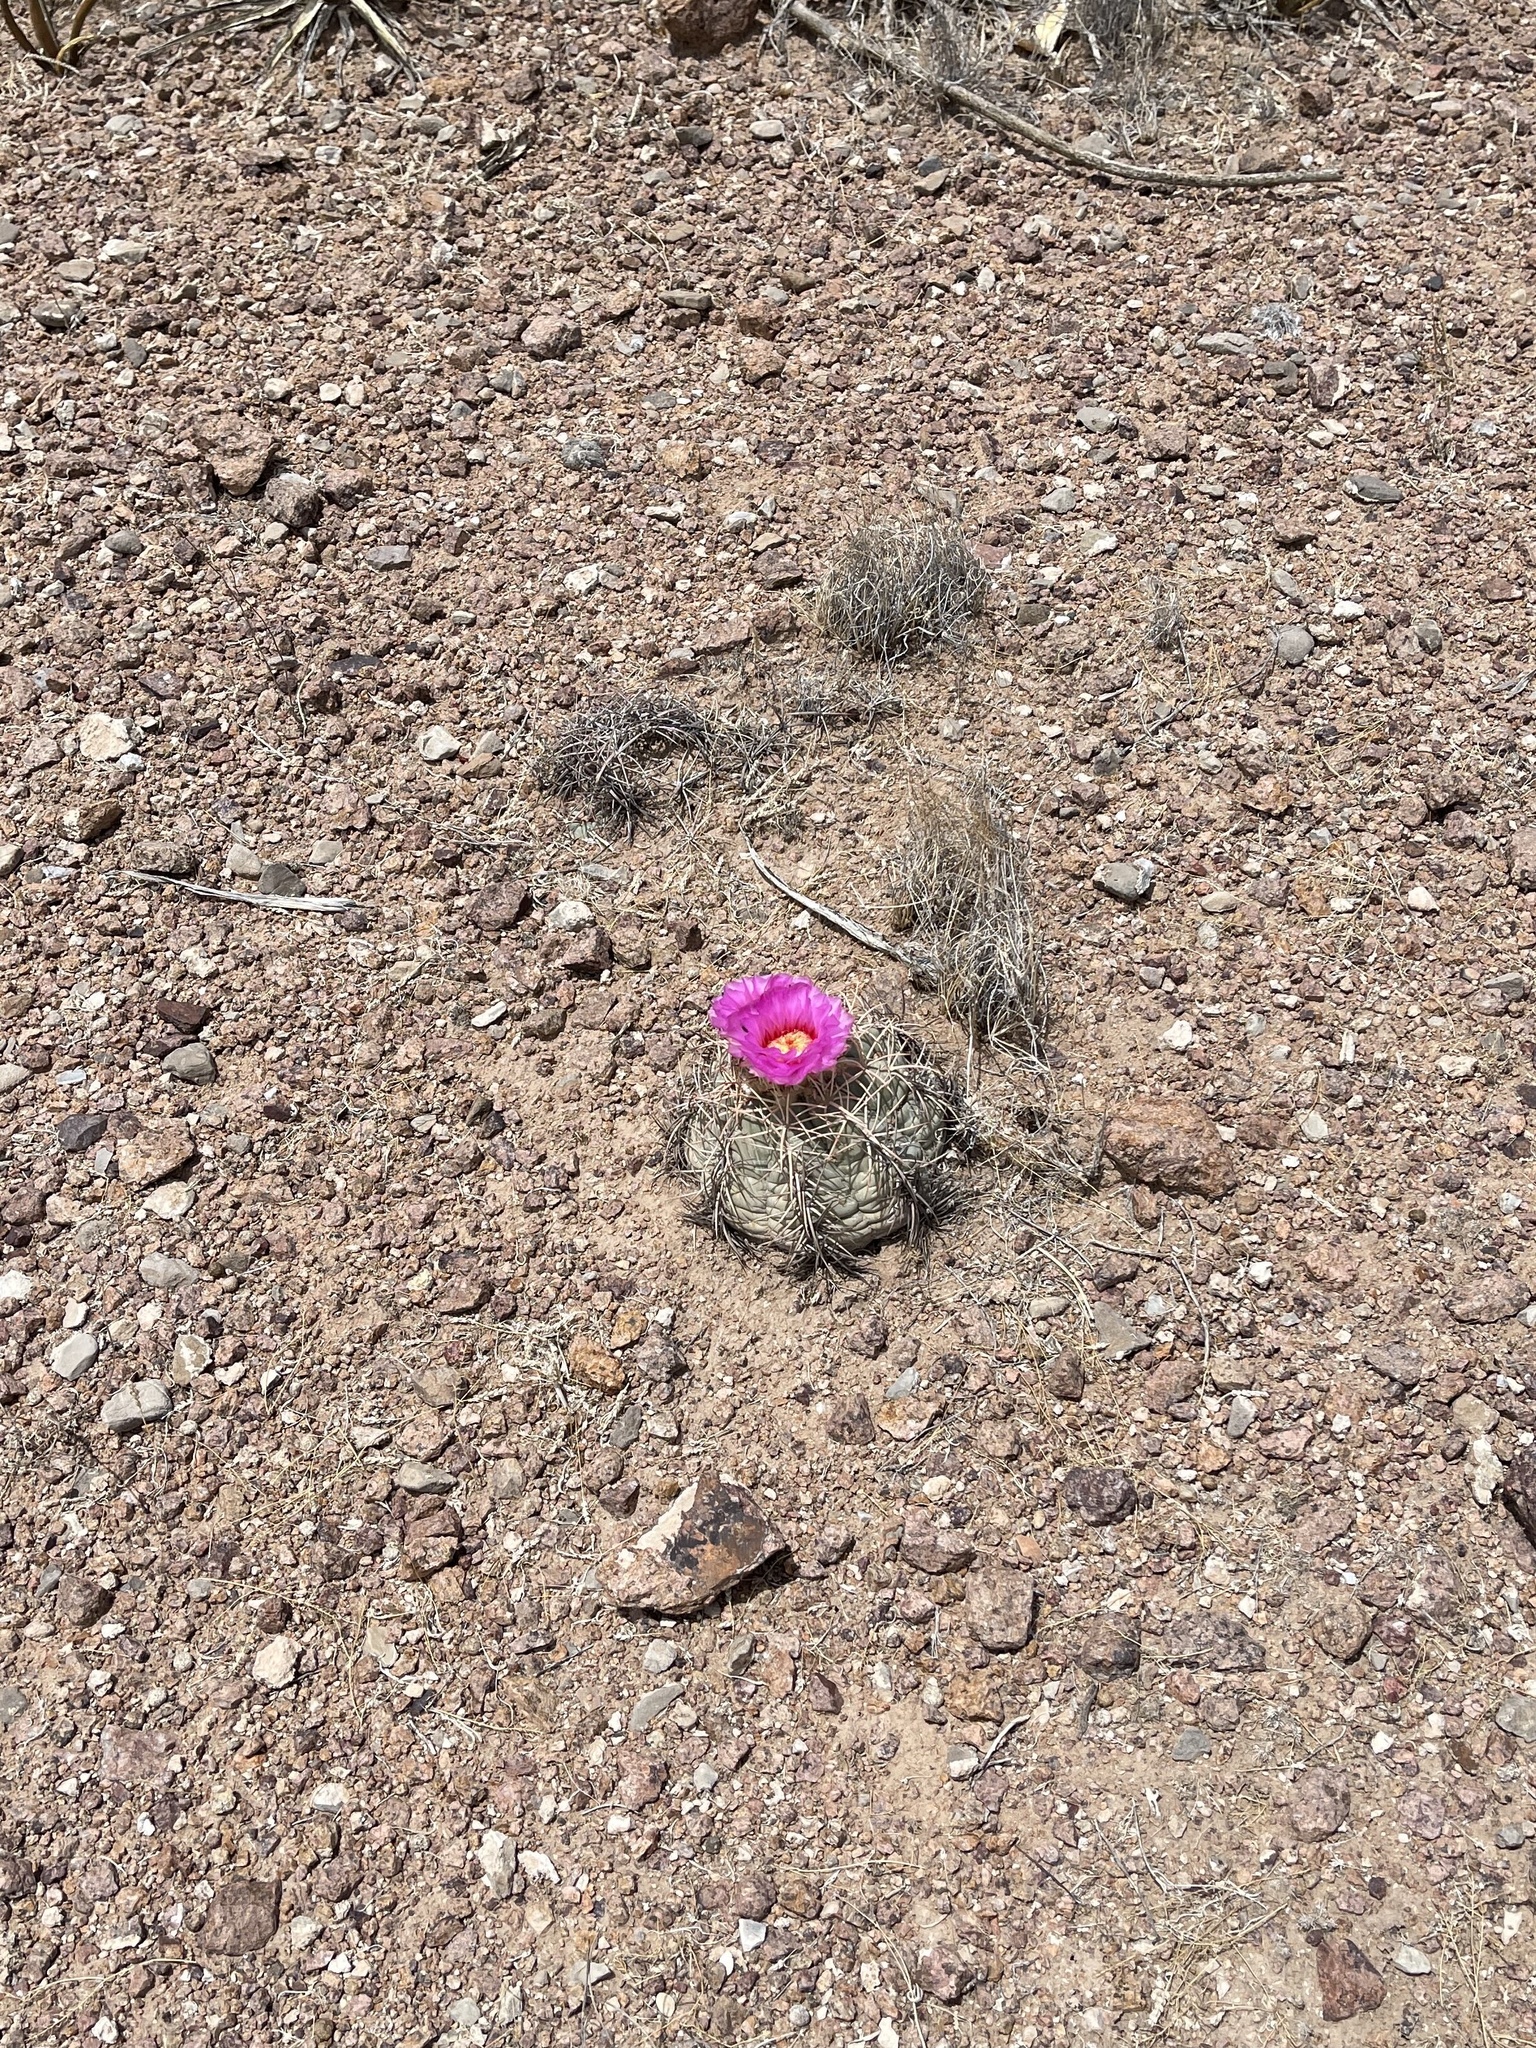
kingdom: Plantae
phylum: Tracheophyta
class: Magnoliopsida
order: Caryophyllales
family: Cactaceae
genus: Echinocactus
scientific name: Echinocactus horizonthalonius
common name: Devilshead
